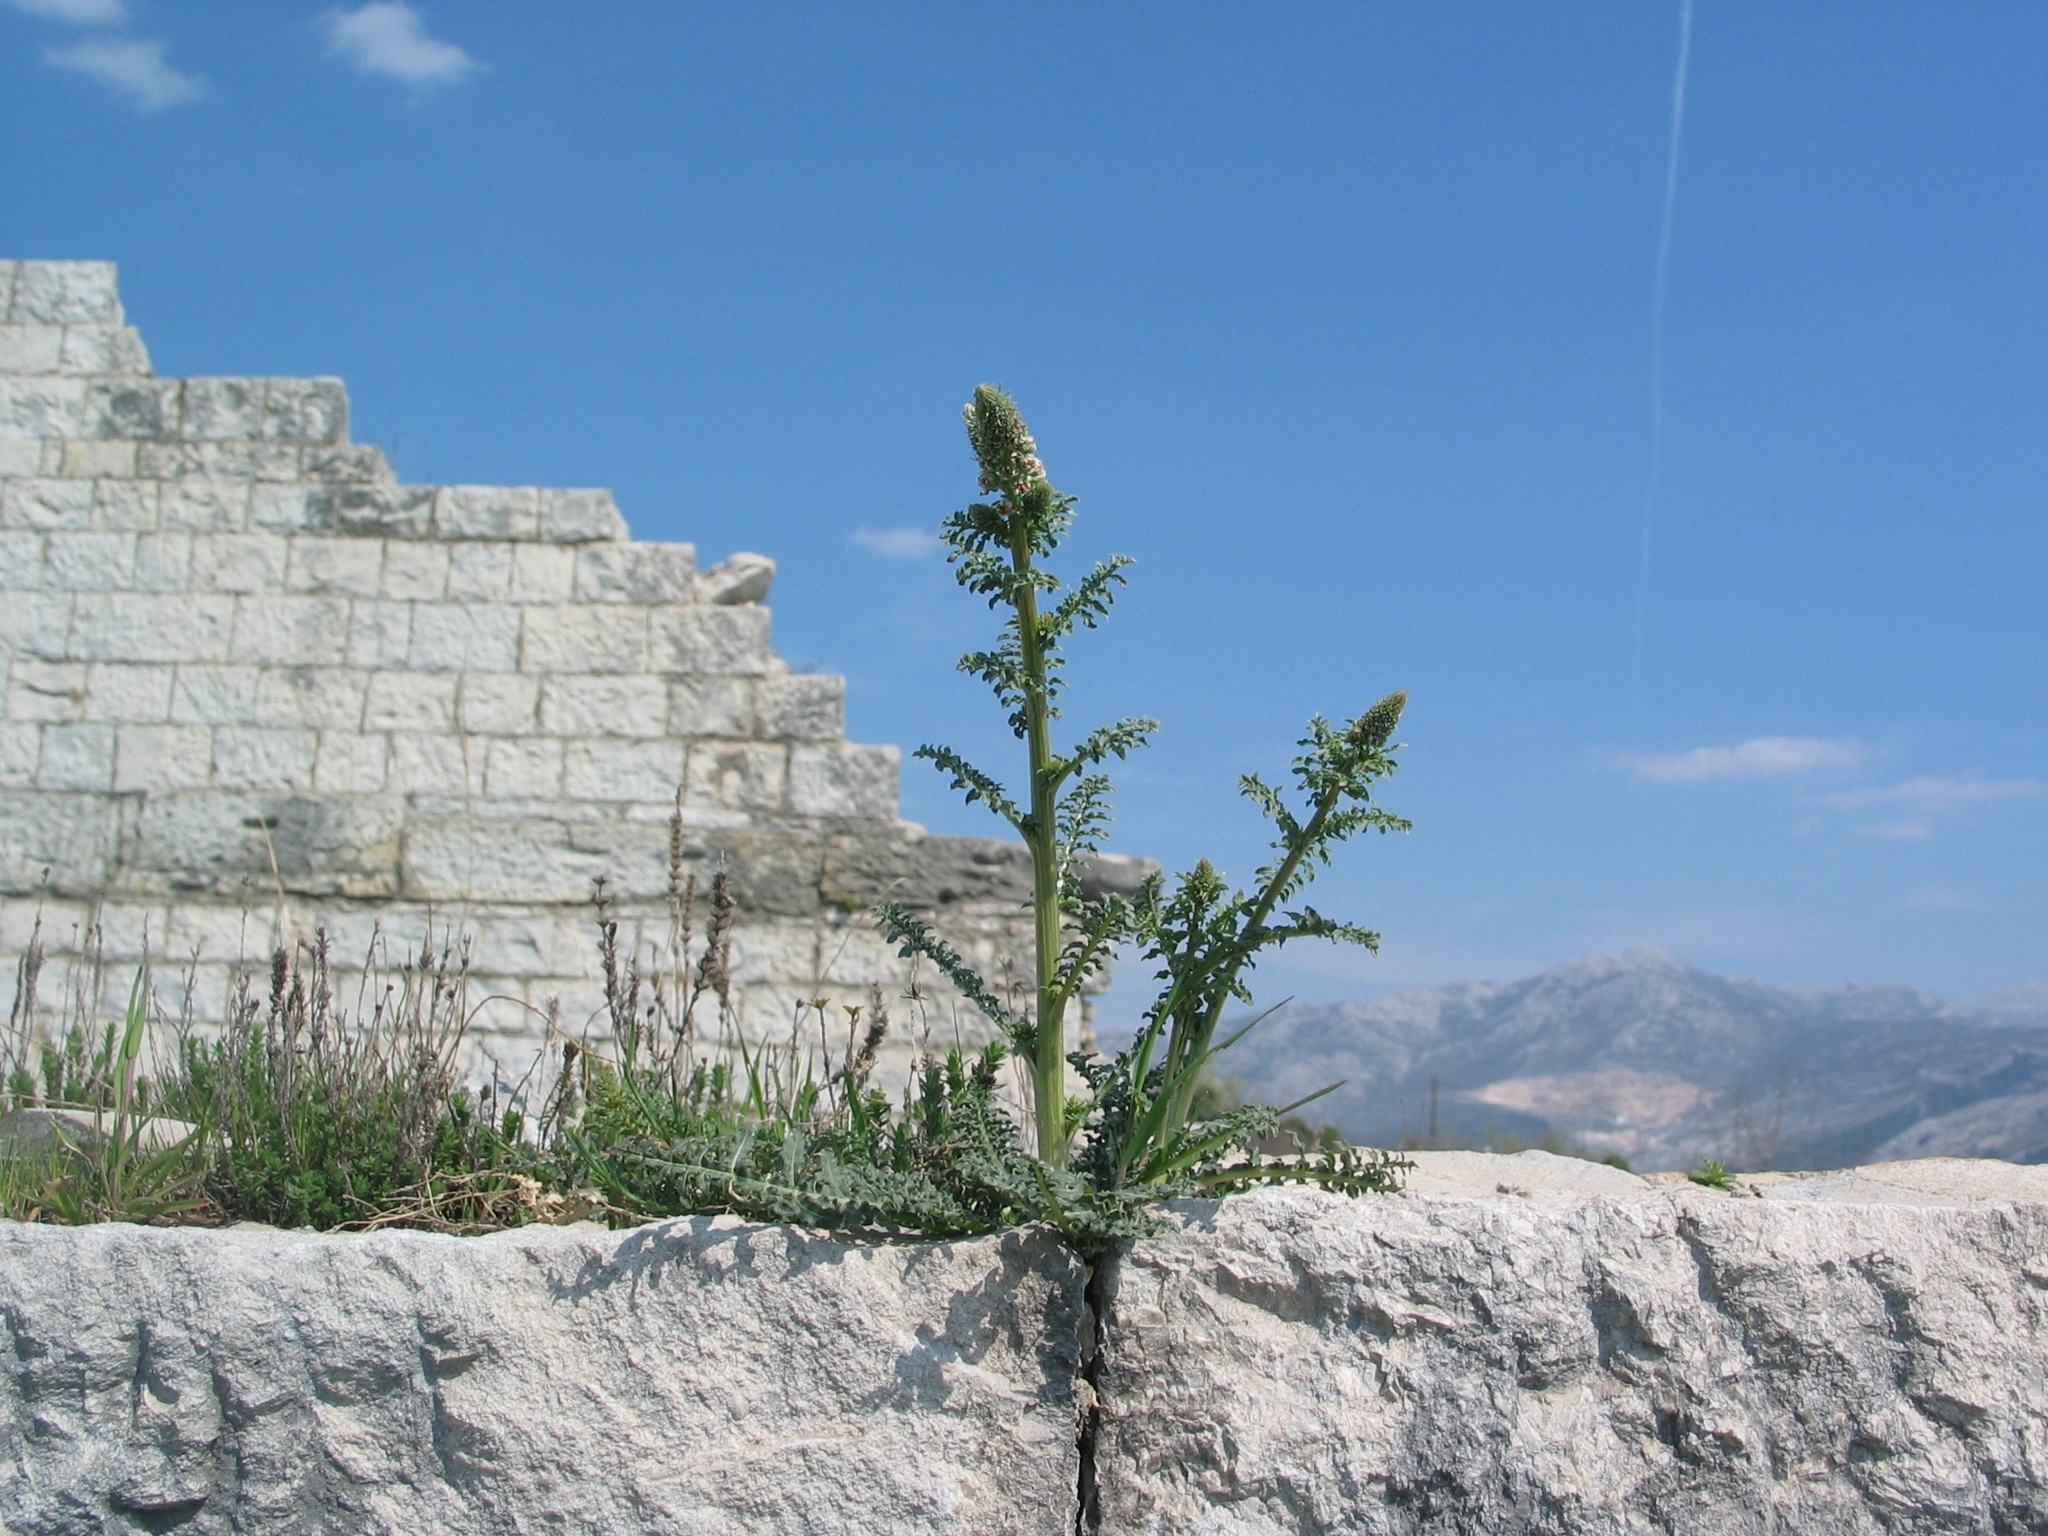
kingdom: Plantae
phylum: Tracheophyta
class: Magnoliopsida
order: Brassicales
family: Resedaceae
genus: Reseda
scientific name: Reseda alba
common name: White mignonette
